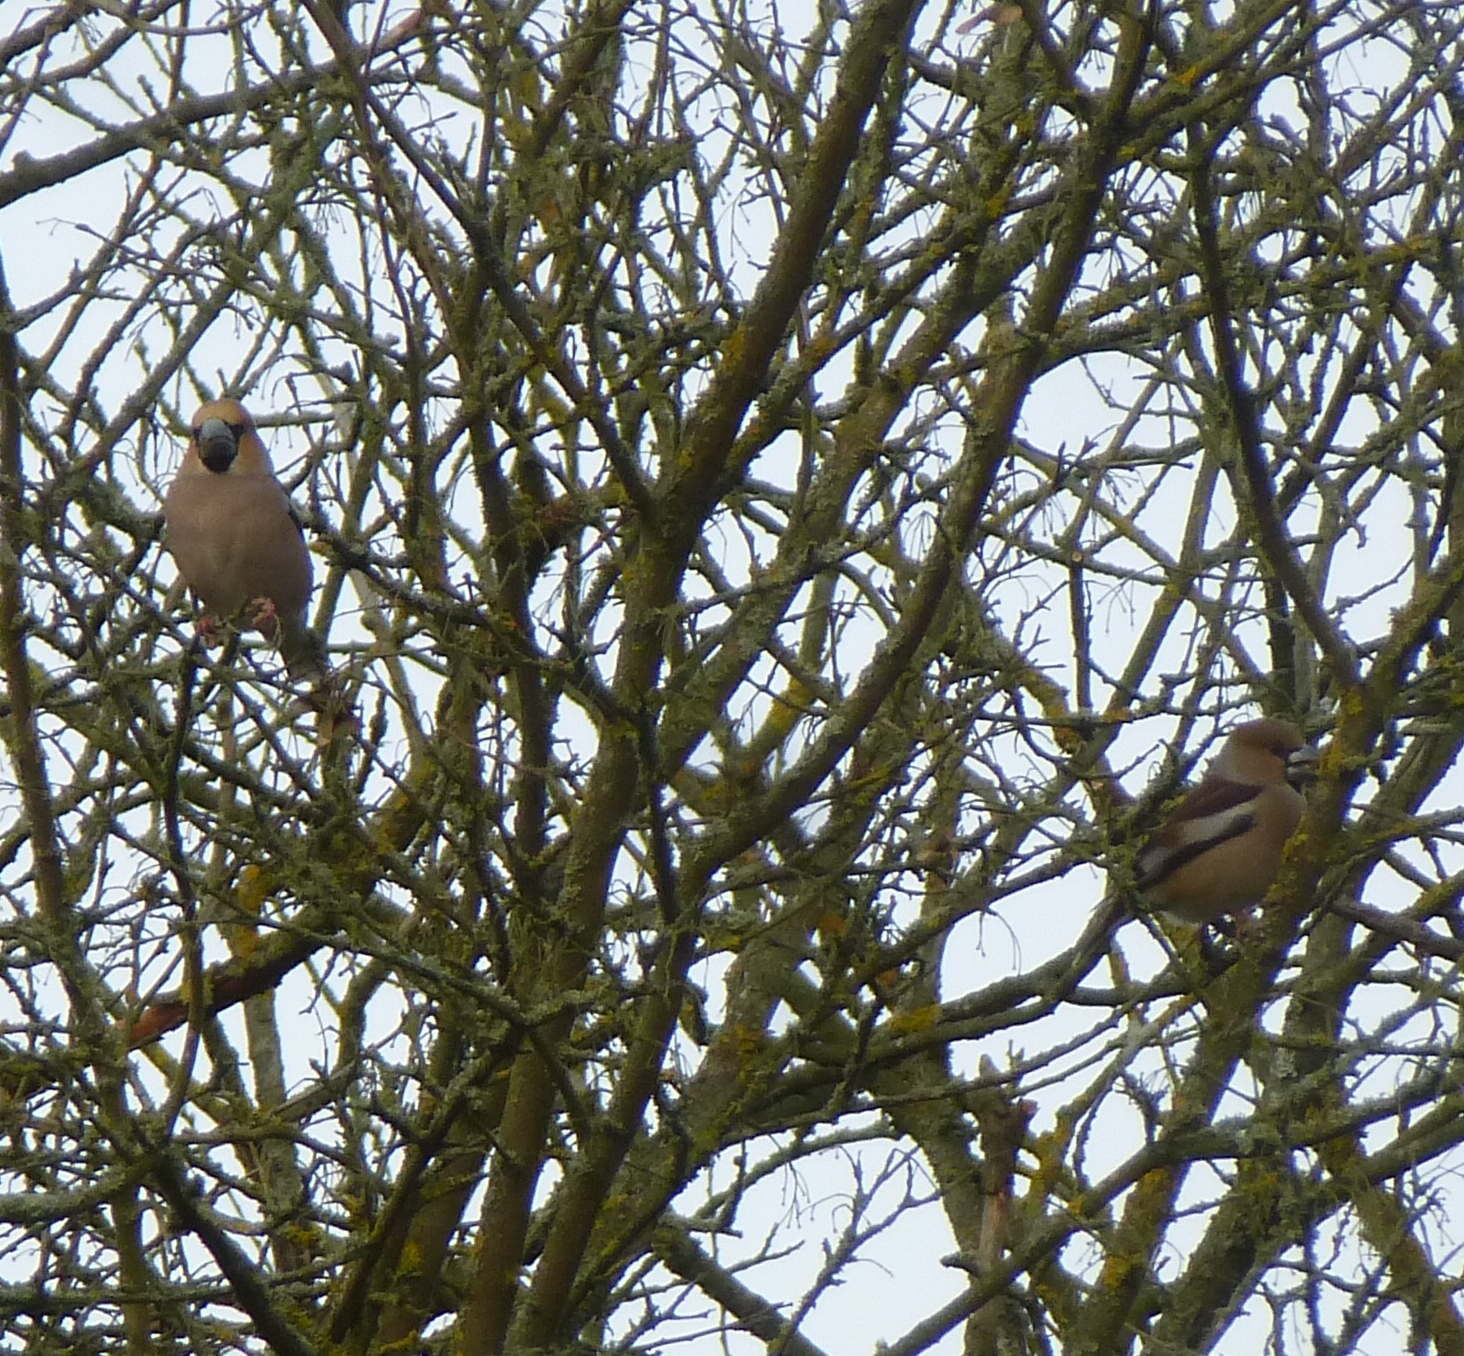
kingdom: Animalia
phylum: Chordata
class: Aves
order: Passeriformes
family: Fringillidae
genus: Coccothraustes
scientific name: Coccothraustes coccothraustes
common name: Hawfinch
